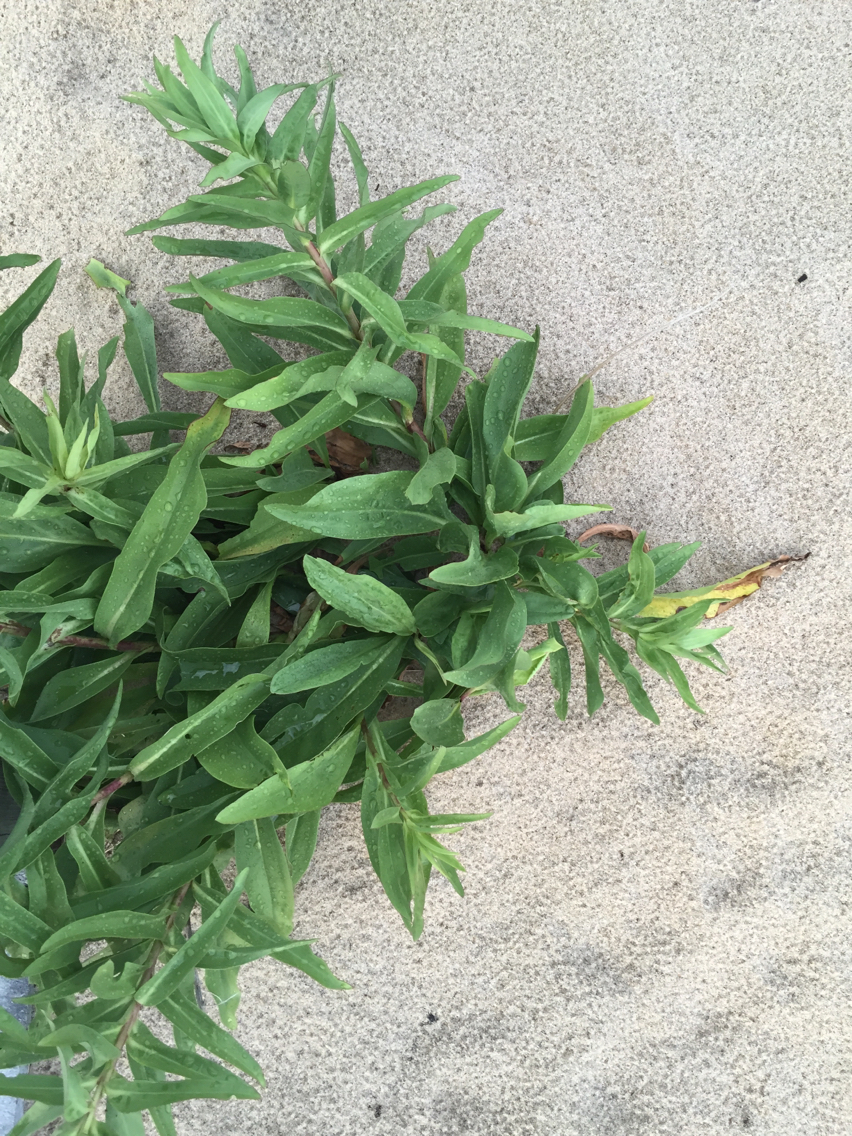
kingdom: Plantae
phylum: Tracheophyta
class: Magnoliopsida
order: Asterales
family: Asteraceae
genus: Solidago
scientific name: Solidago sempervirens
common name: Salt-marsh goldenrod
